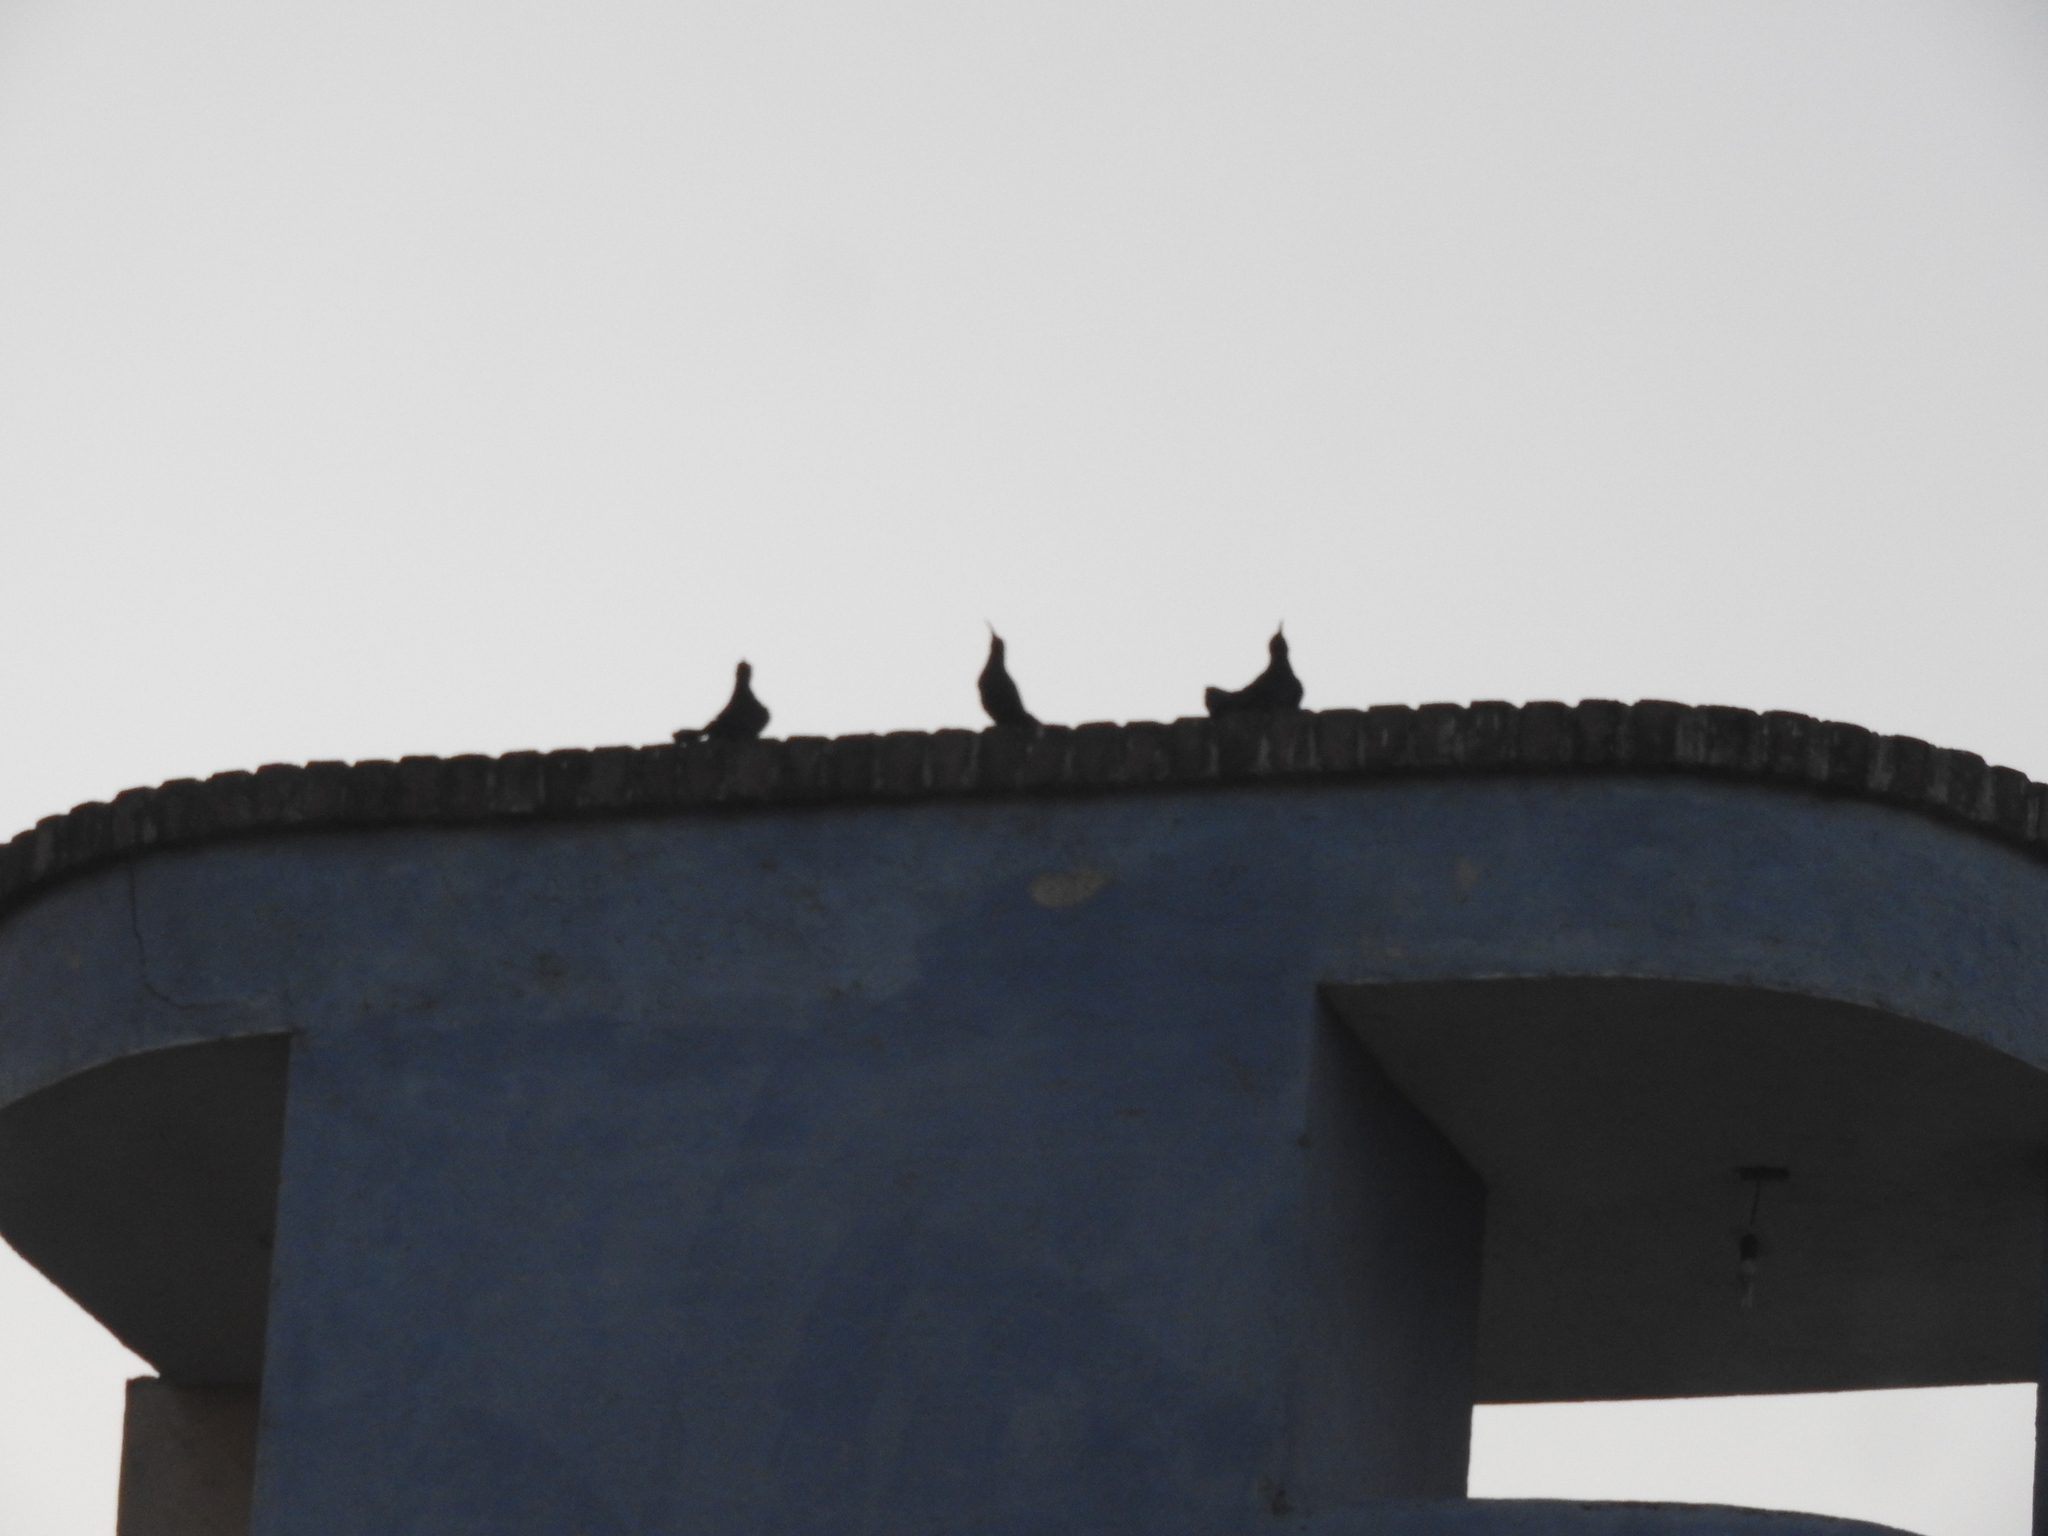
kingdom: Animalia
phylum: Chordata
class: Aves
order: Passeriformes
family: Icteridae
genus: Quiscalus
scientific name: Quiscalus mexicanus
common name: Great-tailed grackle
